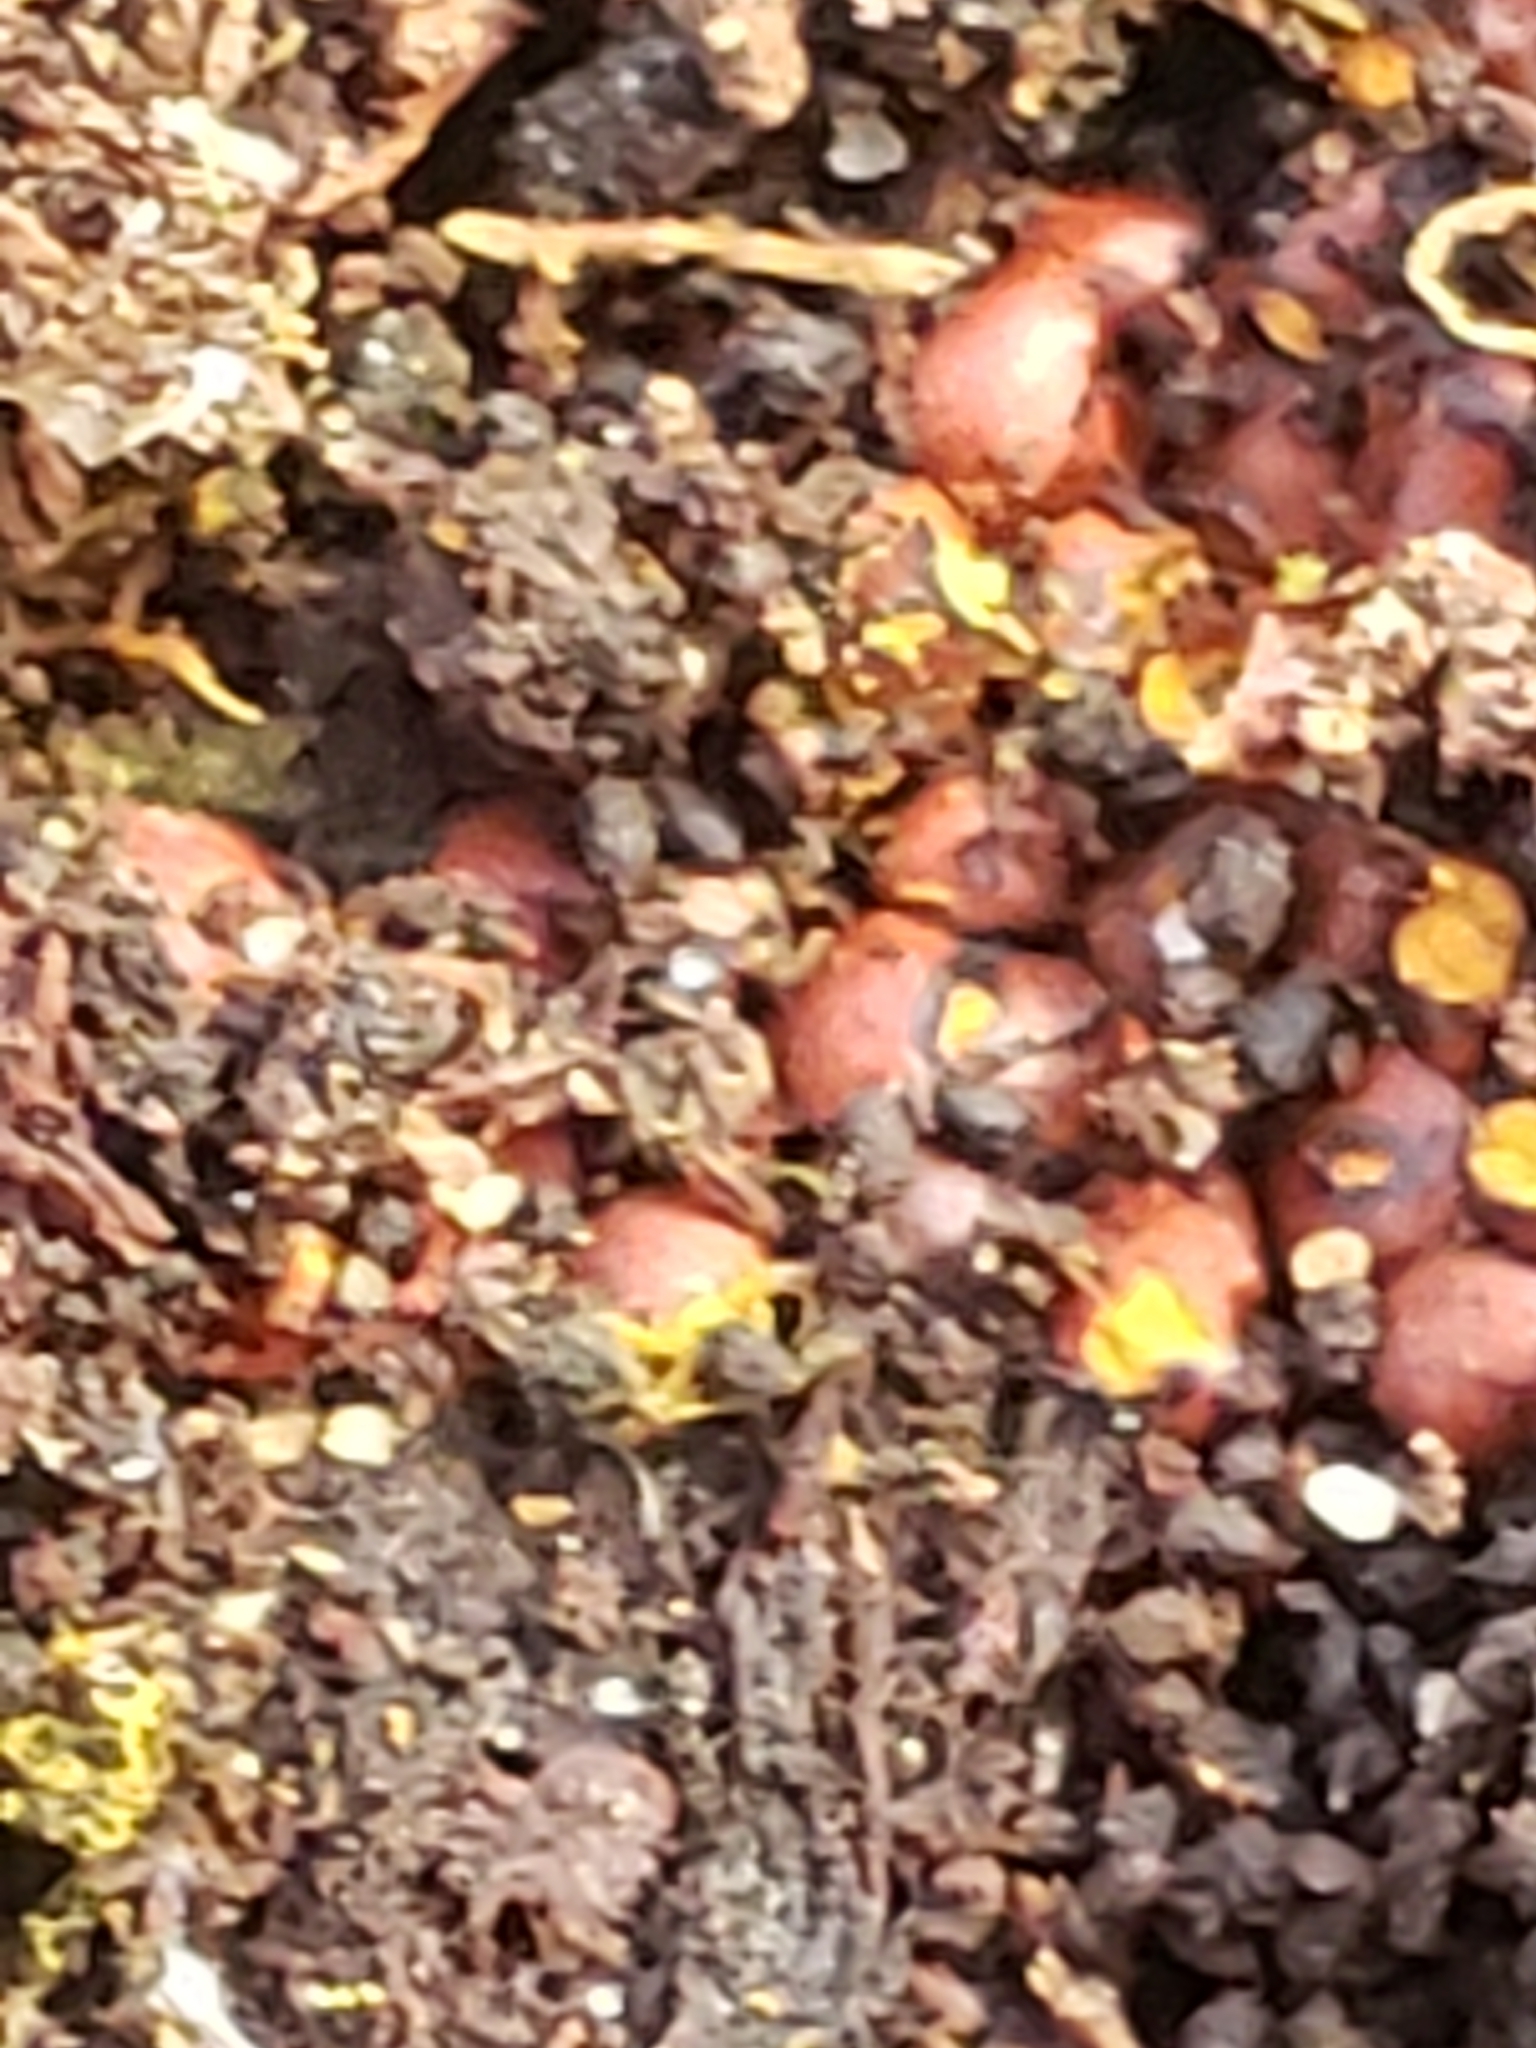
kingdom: Protozoa
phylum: Mycetozoa
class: Myxomycetes
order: Trichiales
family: Trichiaceae
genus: Perichaena
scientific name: Perichaena depressa
